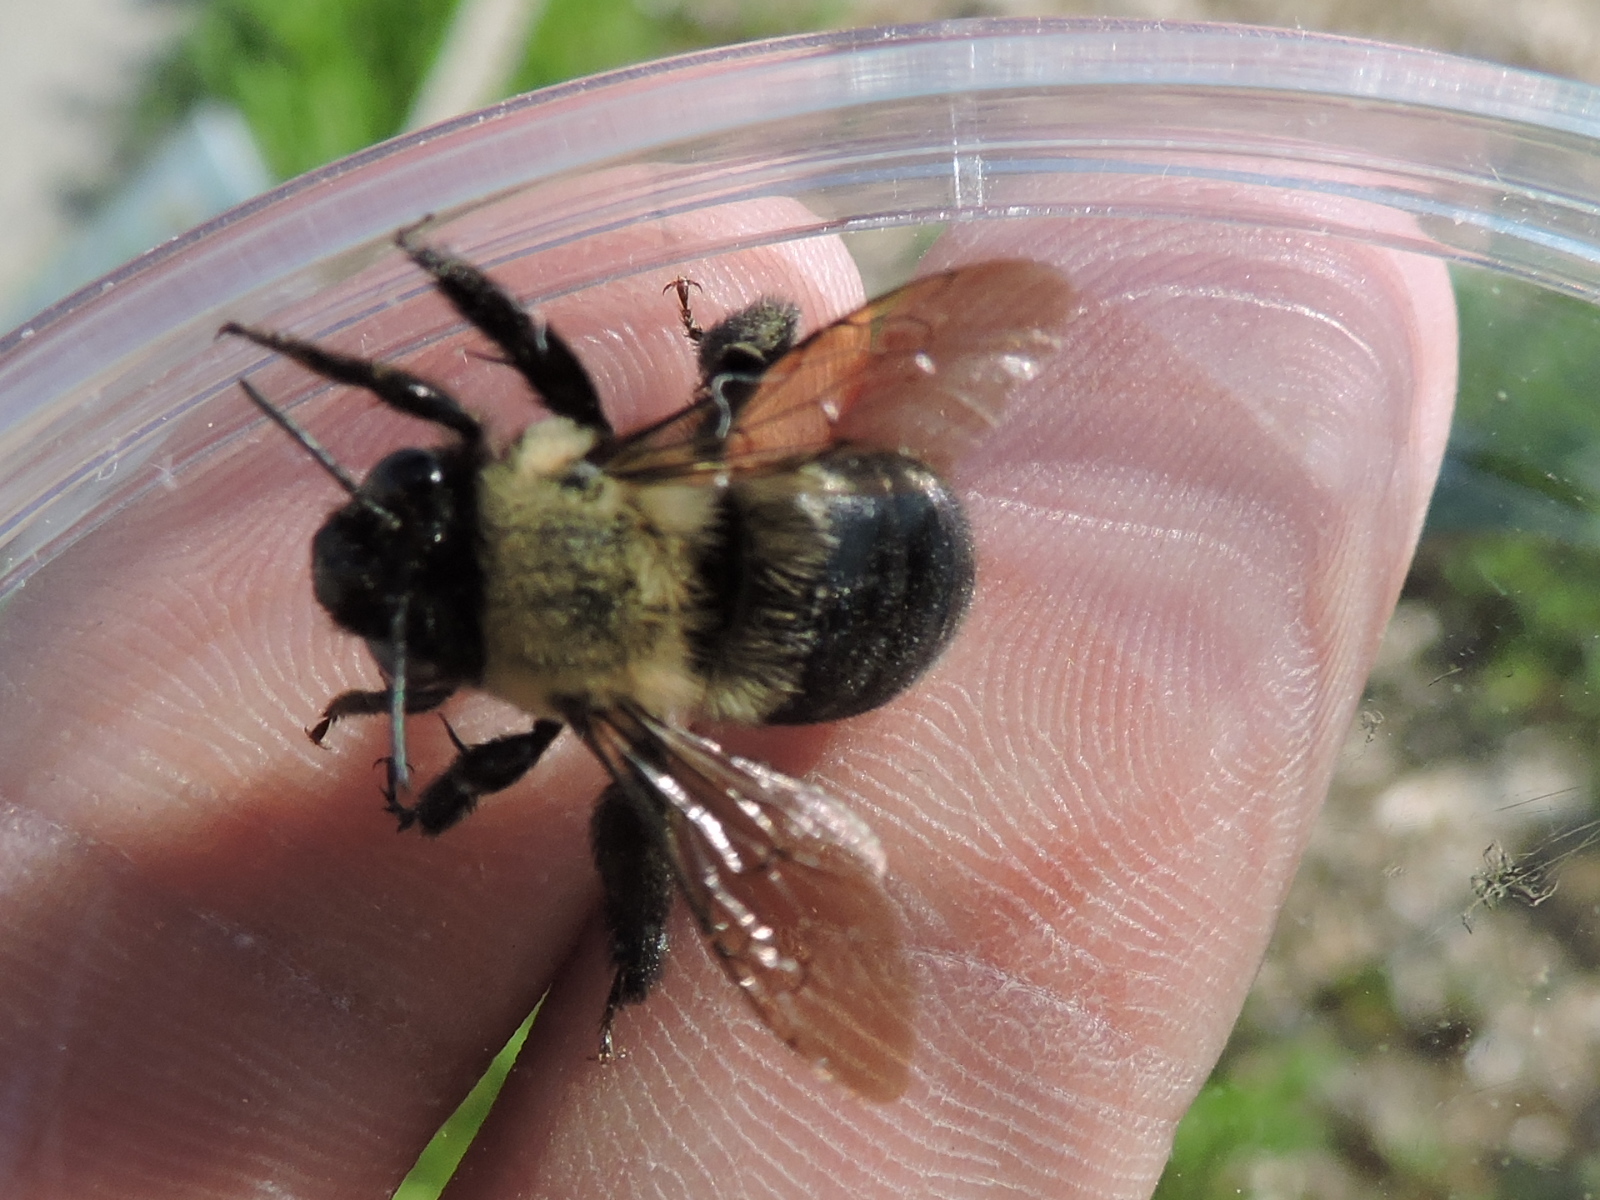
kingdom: Animalia
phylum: Arthropoda
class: Insecta
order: Hymenoptera
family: Apidae
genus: Habropoda
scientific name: Habropoda laboriosa
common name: Southeastern blueberry bee
